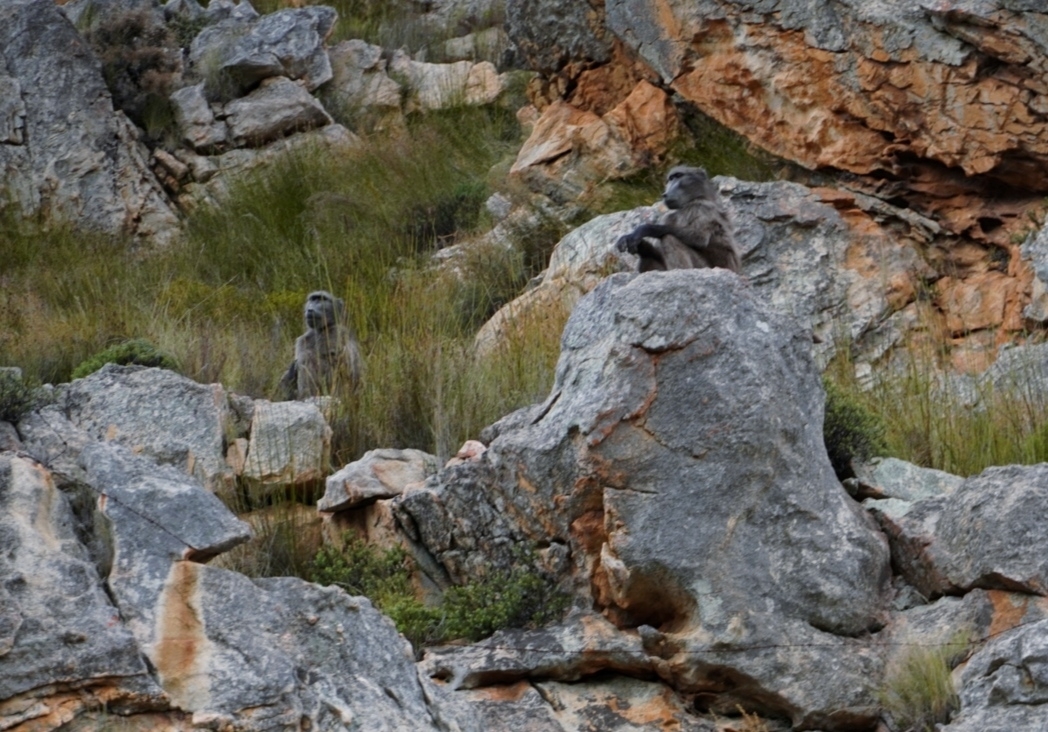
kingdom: Animalia
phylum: Chordata
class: Mammalia
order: Primates
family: Cercopithecidae
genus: Papio
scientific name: Papio ursinus
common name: Chacma baboon
